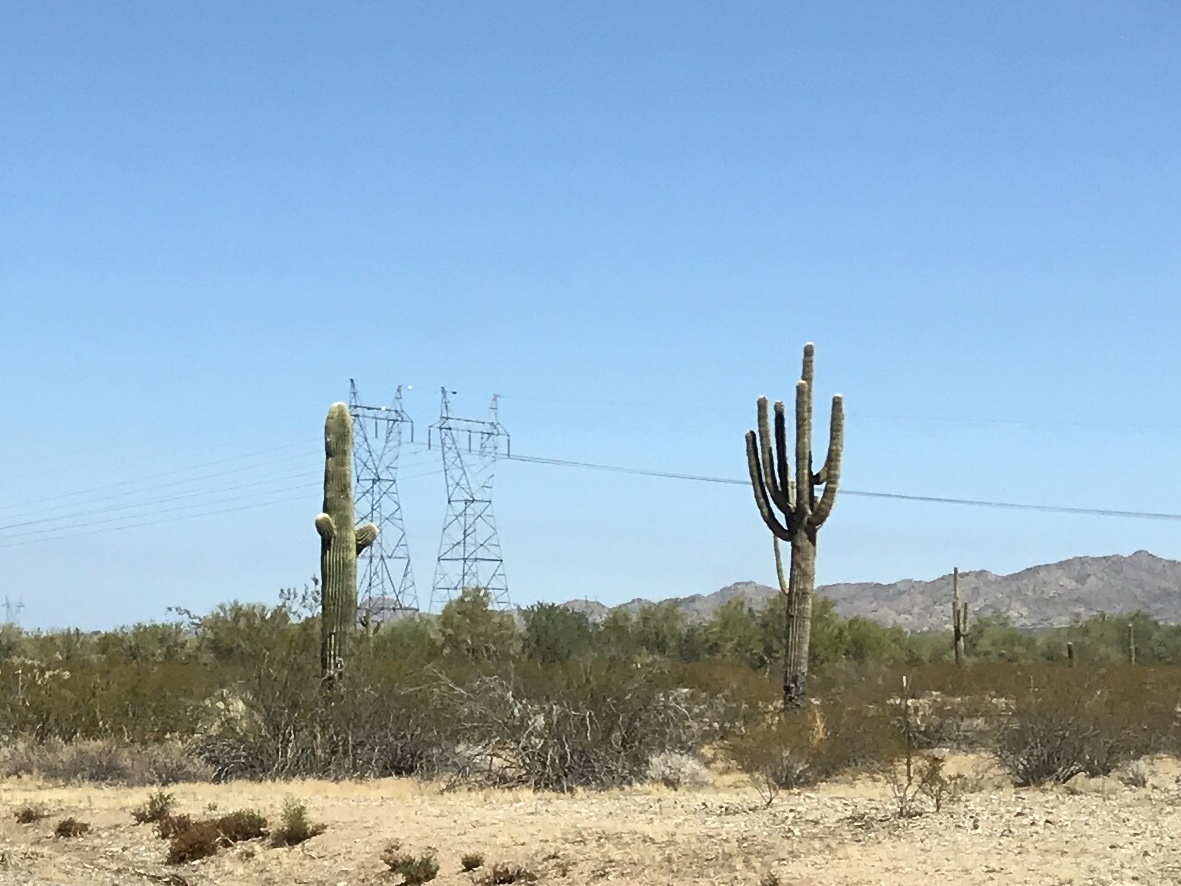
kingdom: Plantae
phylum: Tracheophyta
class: Magnoliopsida
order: Caryophyllales
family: Cactaceae
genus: Carnegiea
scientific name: Carnegiea gigantea
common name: Saguaro
